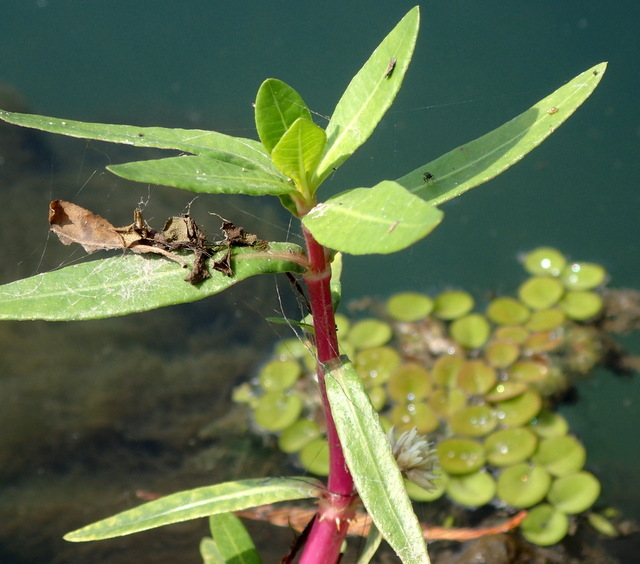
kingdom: Plantae
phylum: Tracheophyta
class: Magnoliopsida
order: Caryophyllales
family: Amaranthaceae
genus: Alternanthera
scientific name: Alternanthera philoxeroides
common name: Alligatorweed
